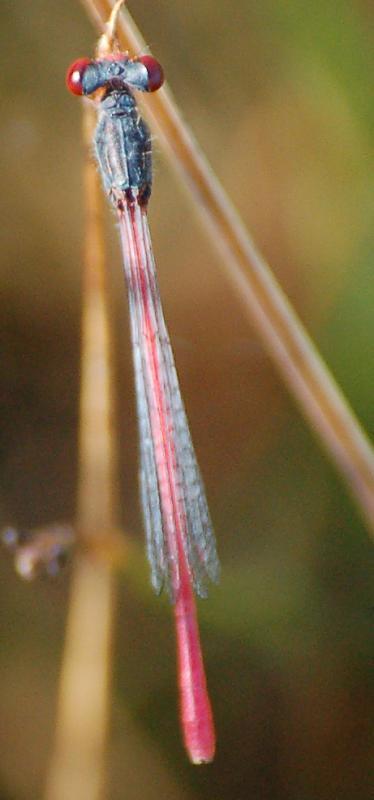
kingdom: Animalia
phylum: Arthropoda
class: Insecta
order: Odonata
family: Coenagrionidae
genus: Ceriagrion
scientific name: Ceriagrion tenellum
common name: Small red damselfly
